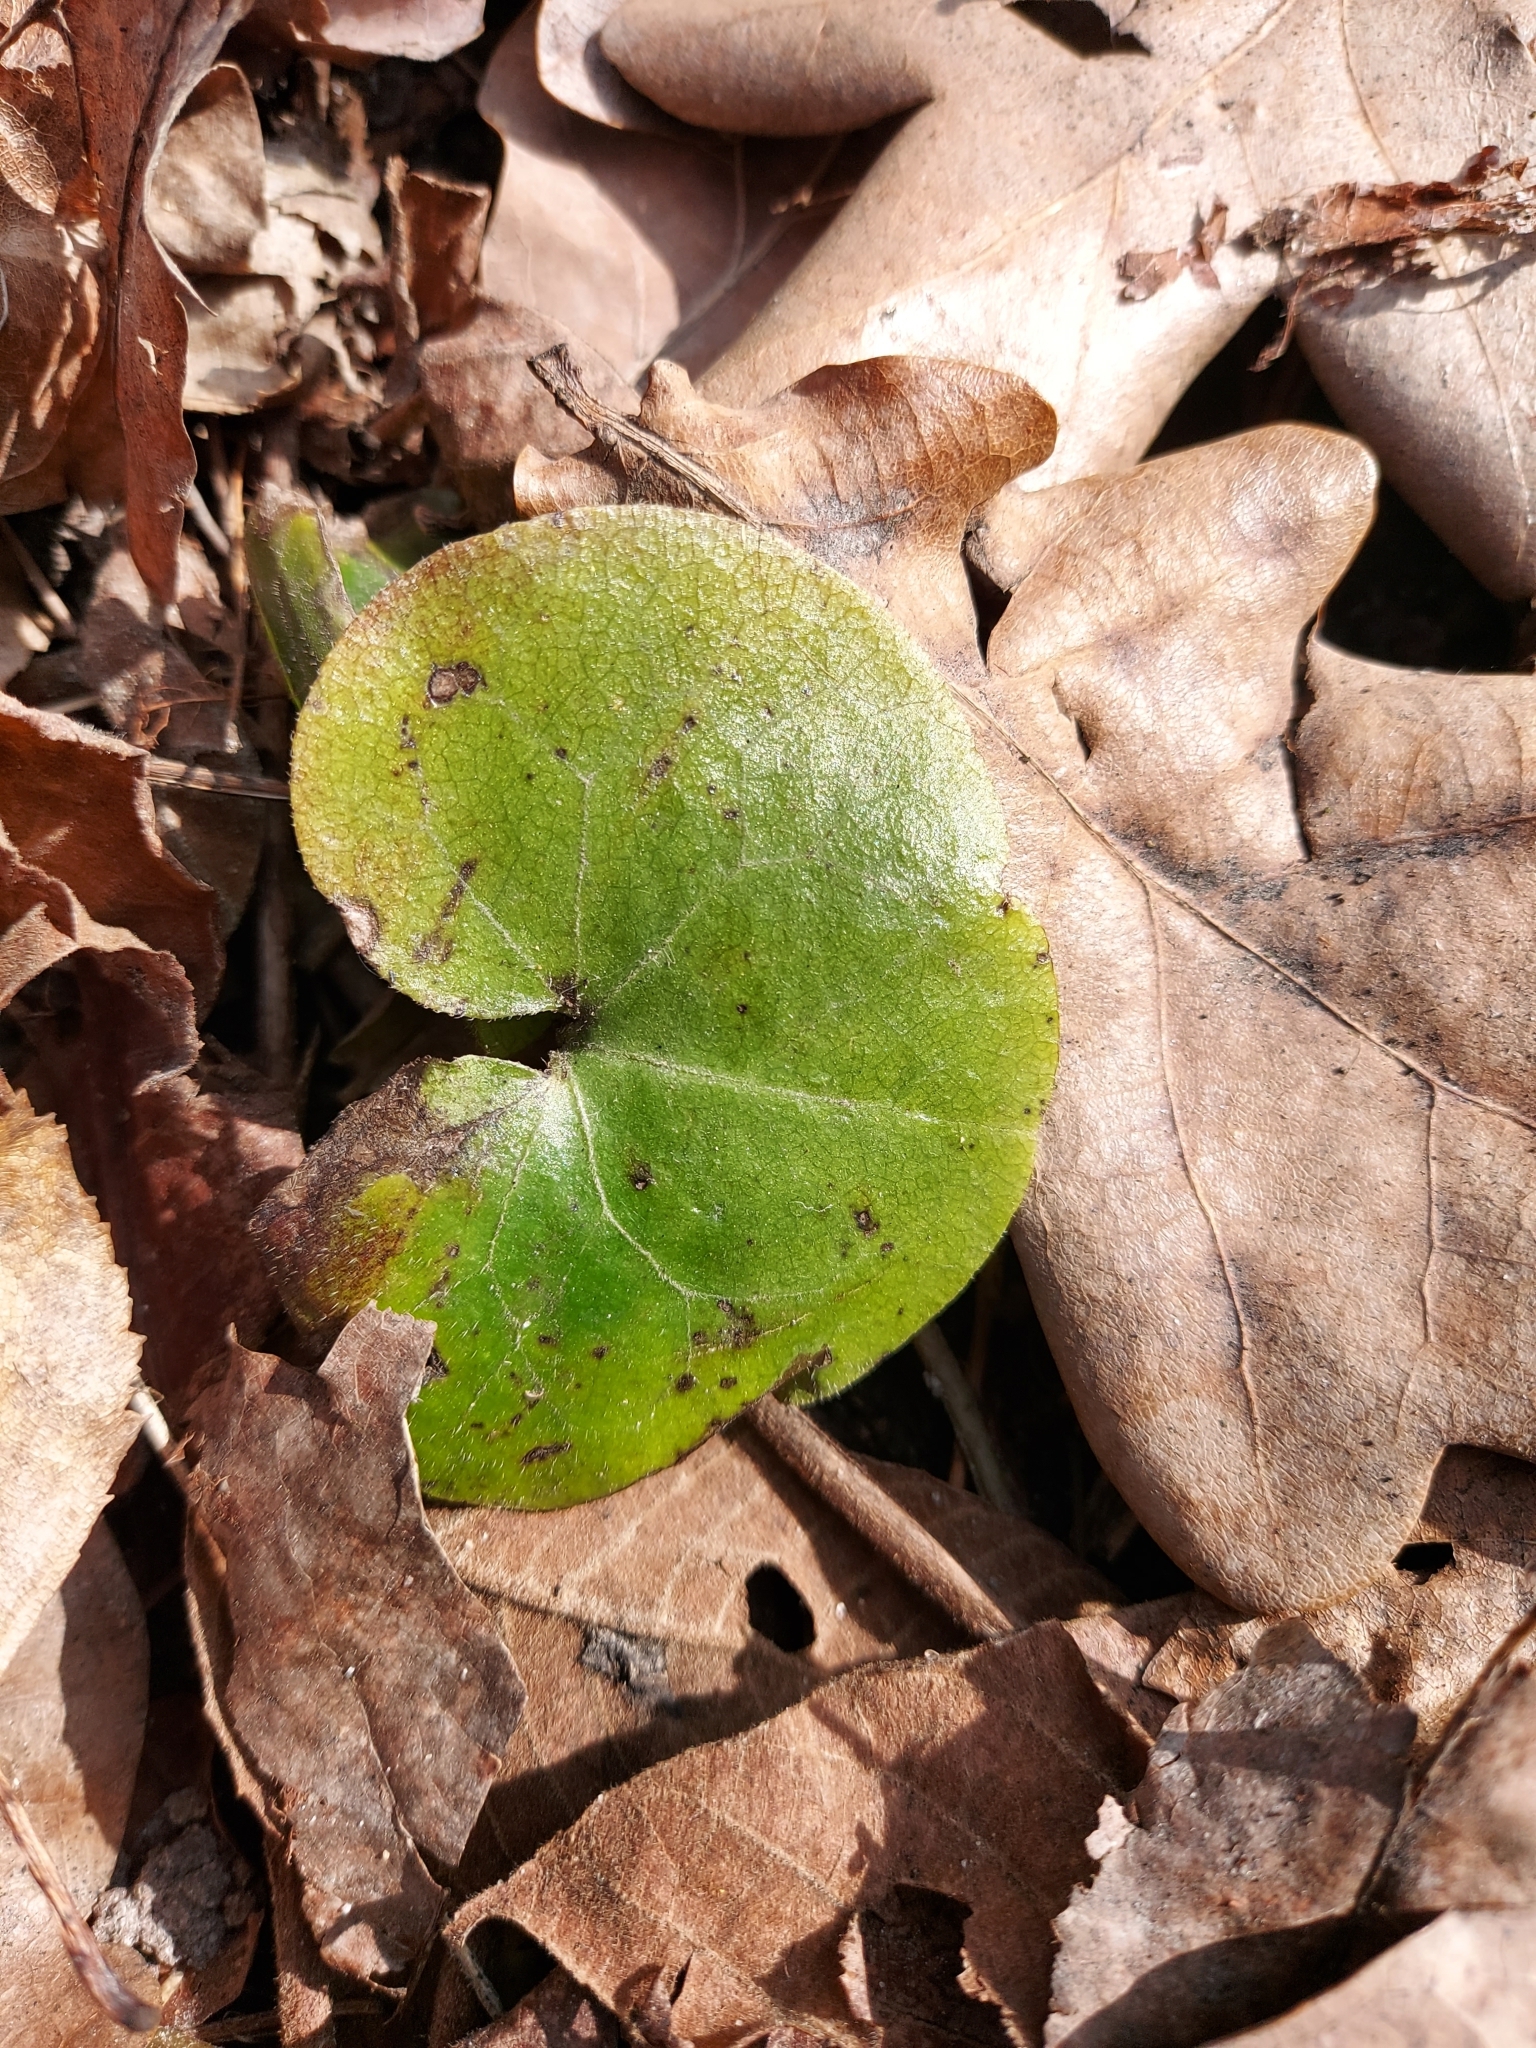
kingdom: Plantae
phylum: Tracheophyta
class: Magnoliopsida
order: Piperales
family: Aristolochiaceae
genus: Asarum
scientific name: Asarum europaeum
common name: Asarabacca
